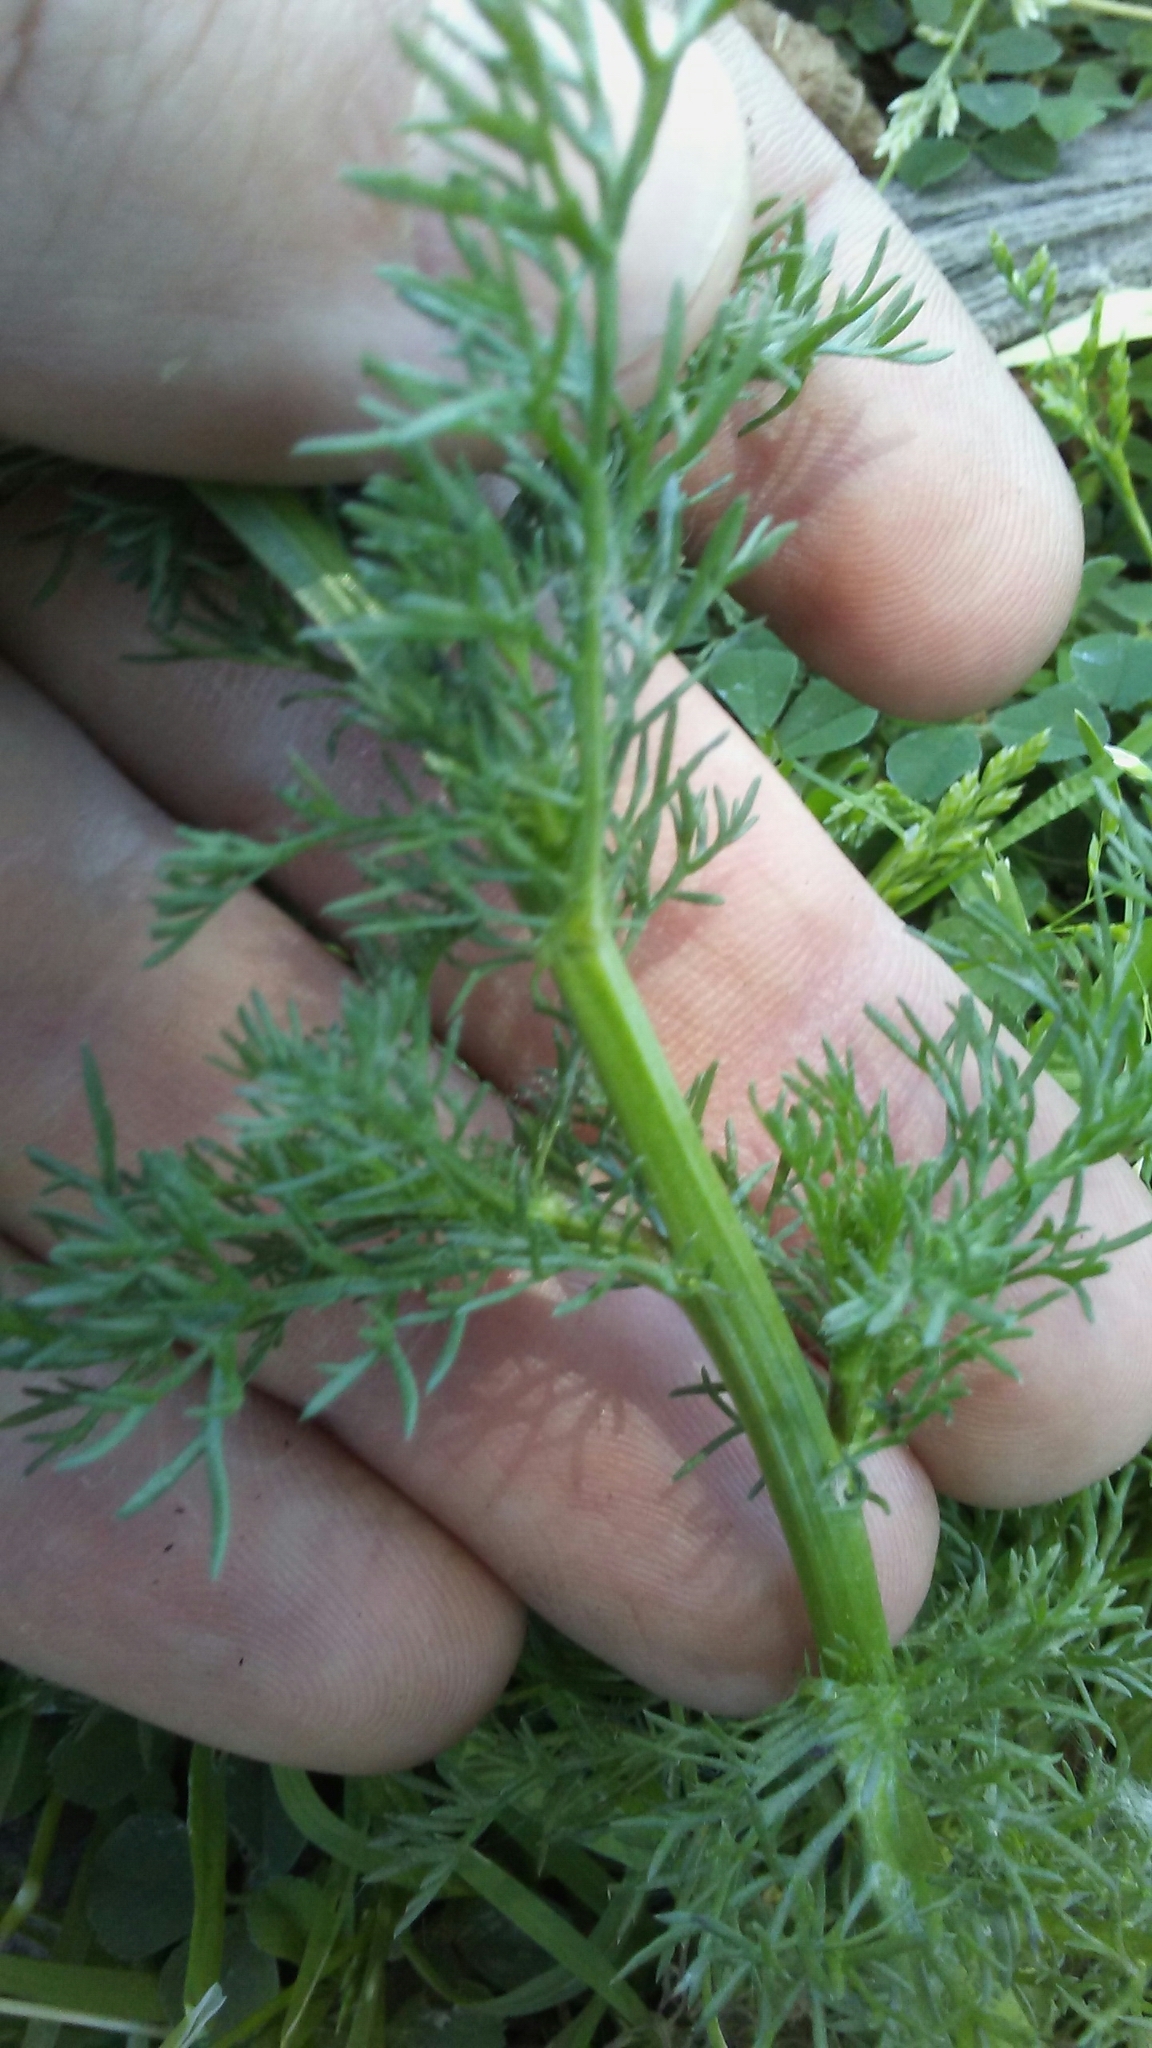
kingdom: Plantae
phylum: Tracheophyta
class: Magnoliopsida
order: Asterales
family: Asteraceae
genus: Matricaria
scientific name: Matricaria chamomilla
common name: Scented mayweed
